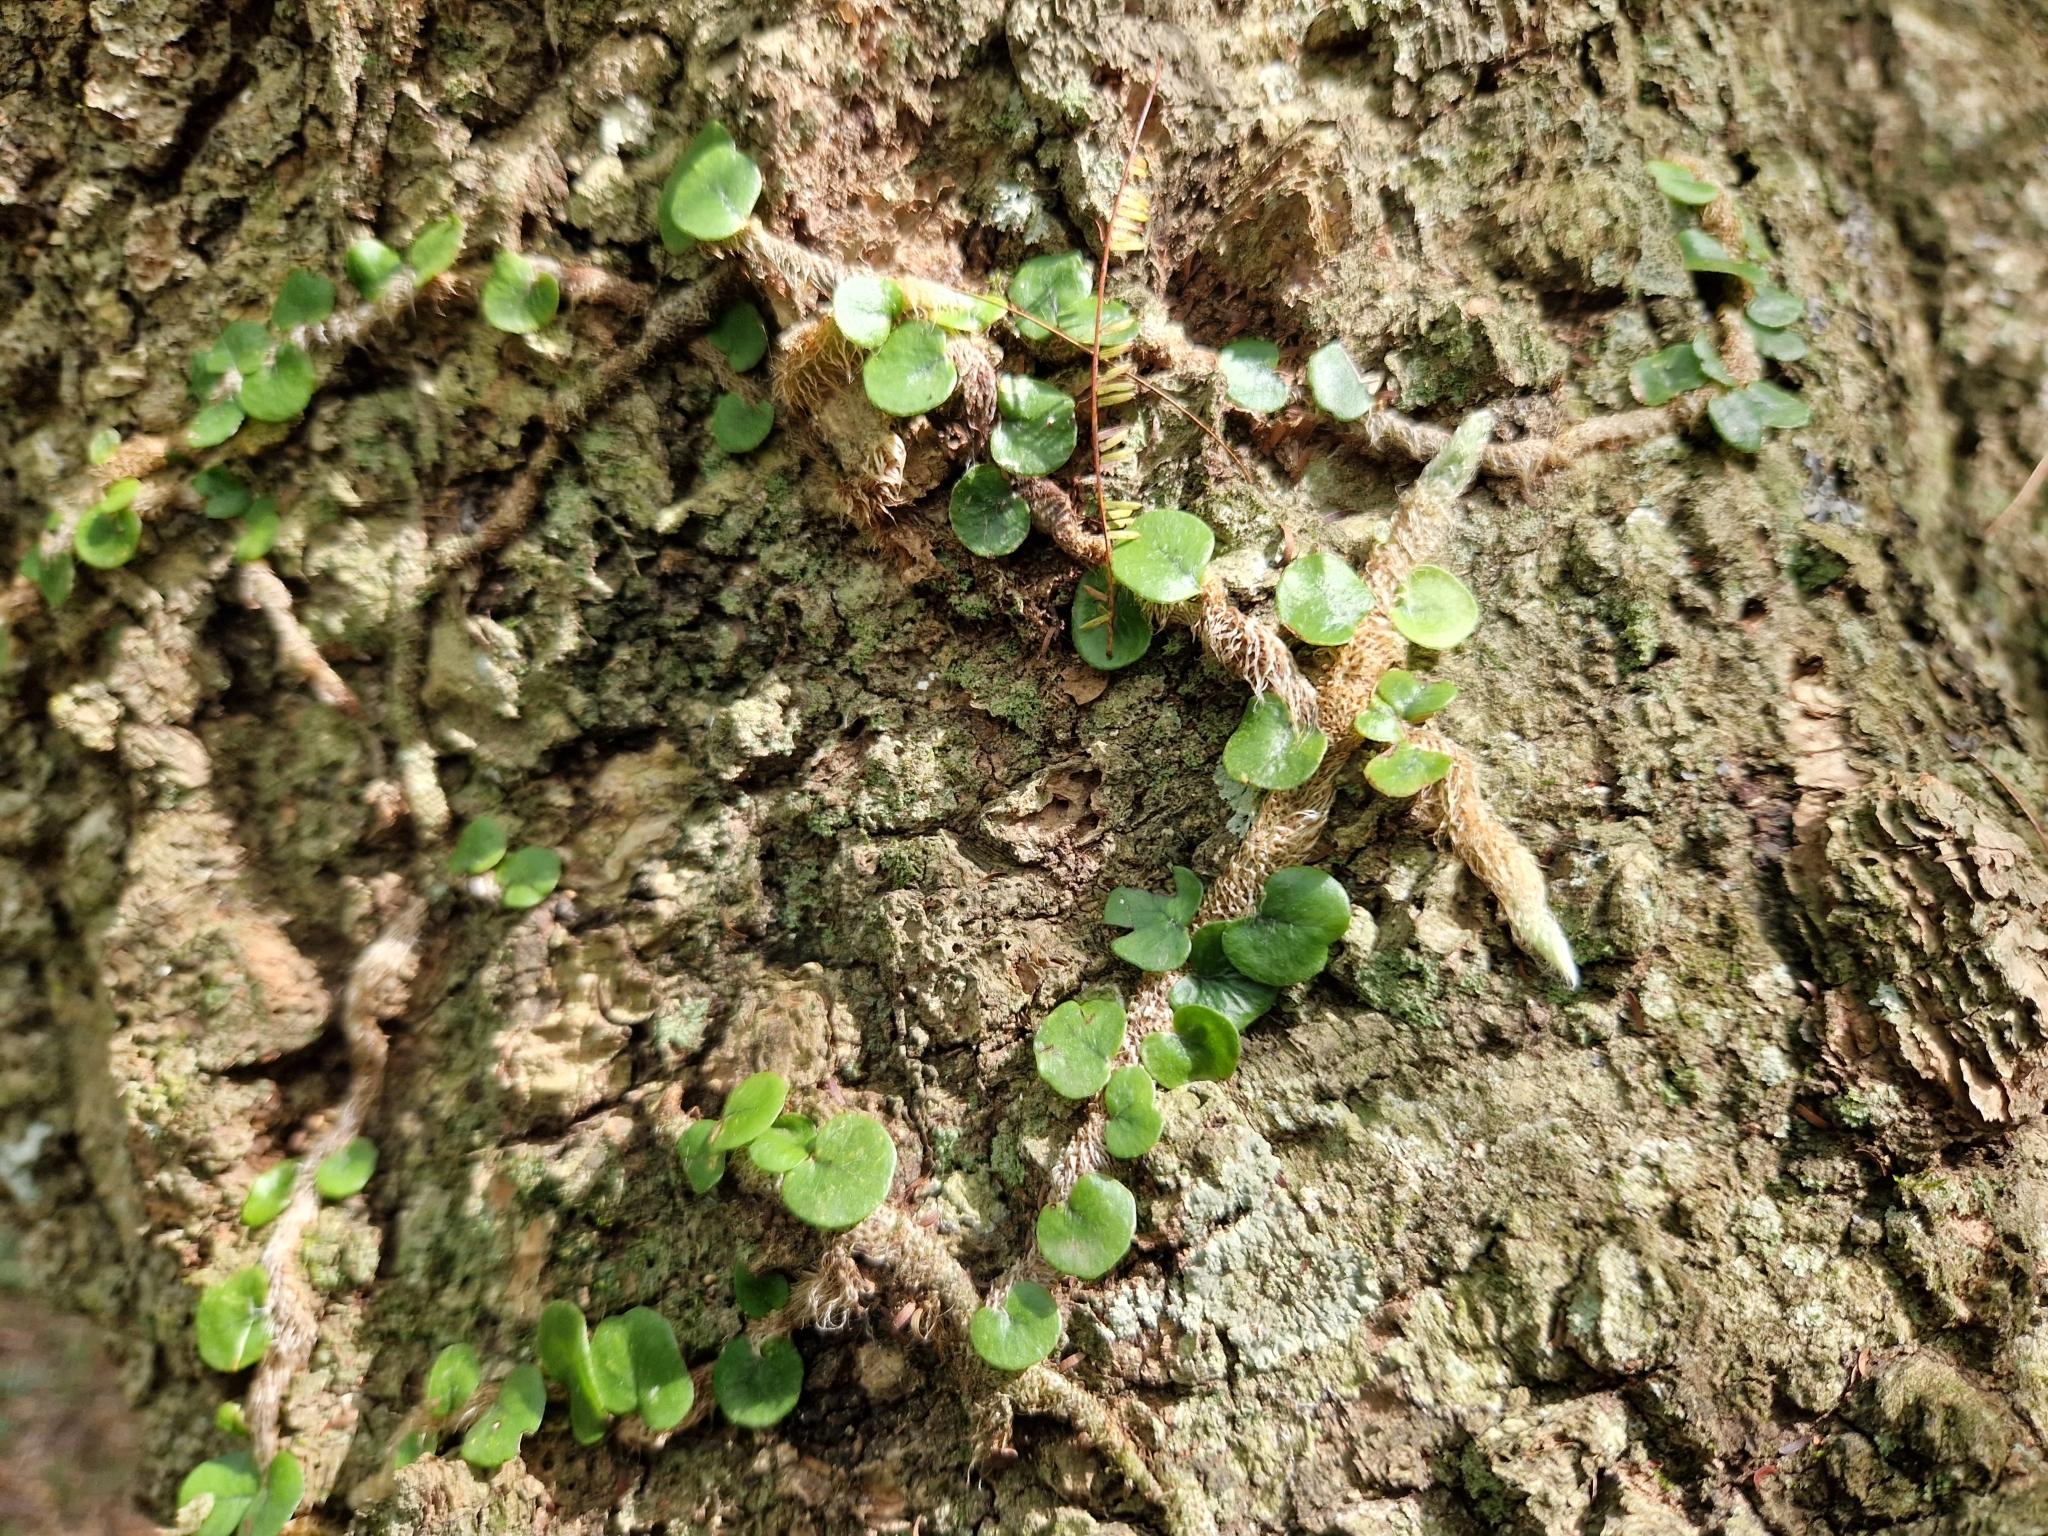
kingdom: Plantae
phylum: Tracheophyta
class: Polypodiopsida
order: Polypodiales
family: Polypodiaceae
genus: Microgramma
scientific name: Microgramma vaccinifolia
